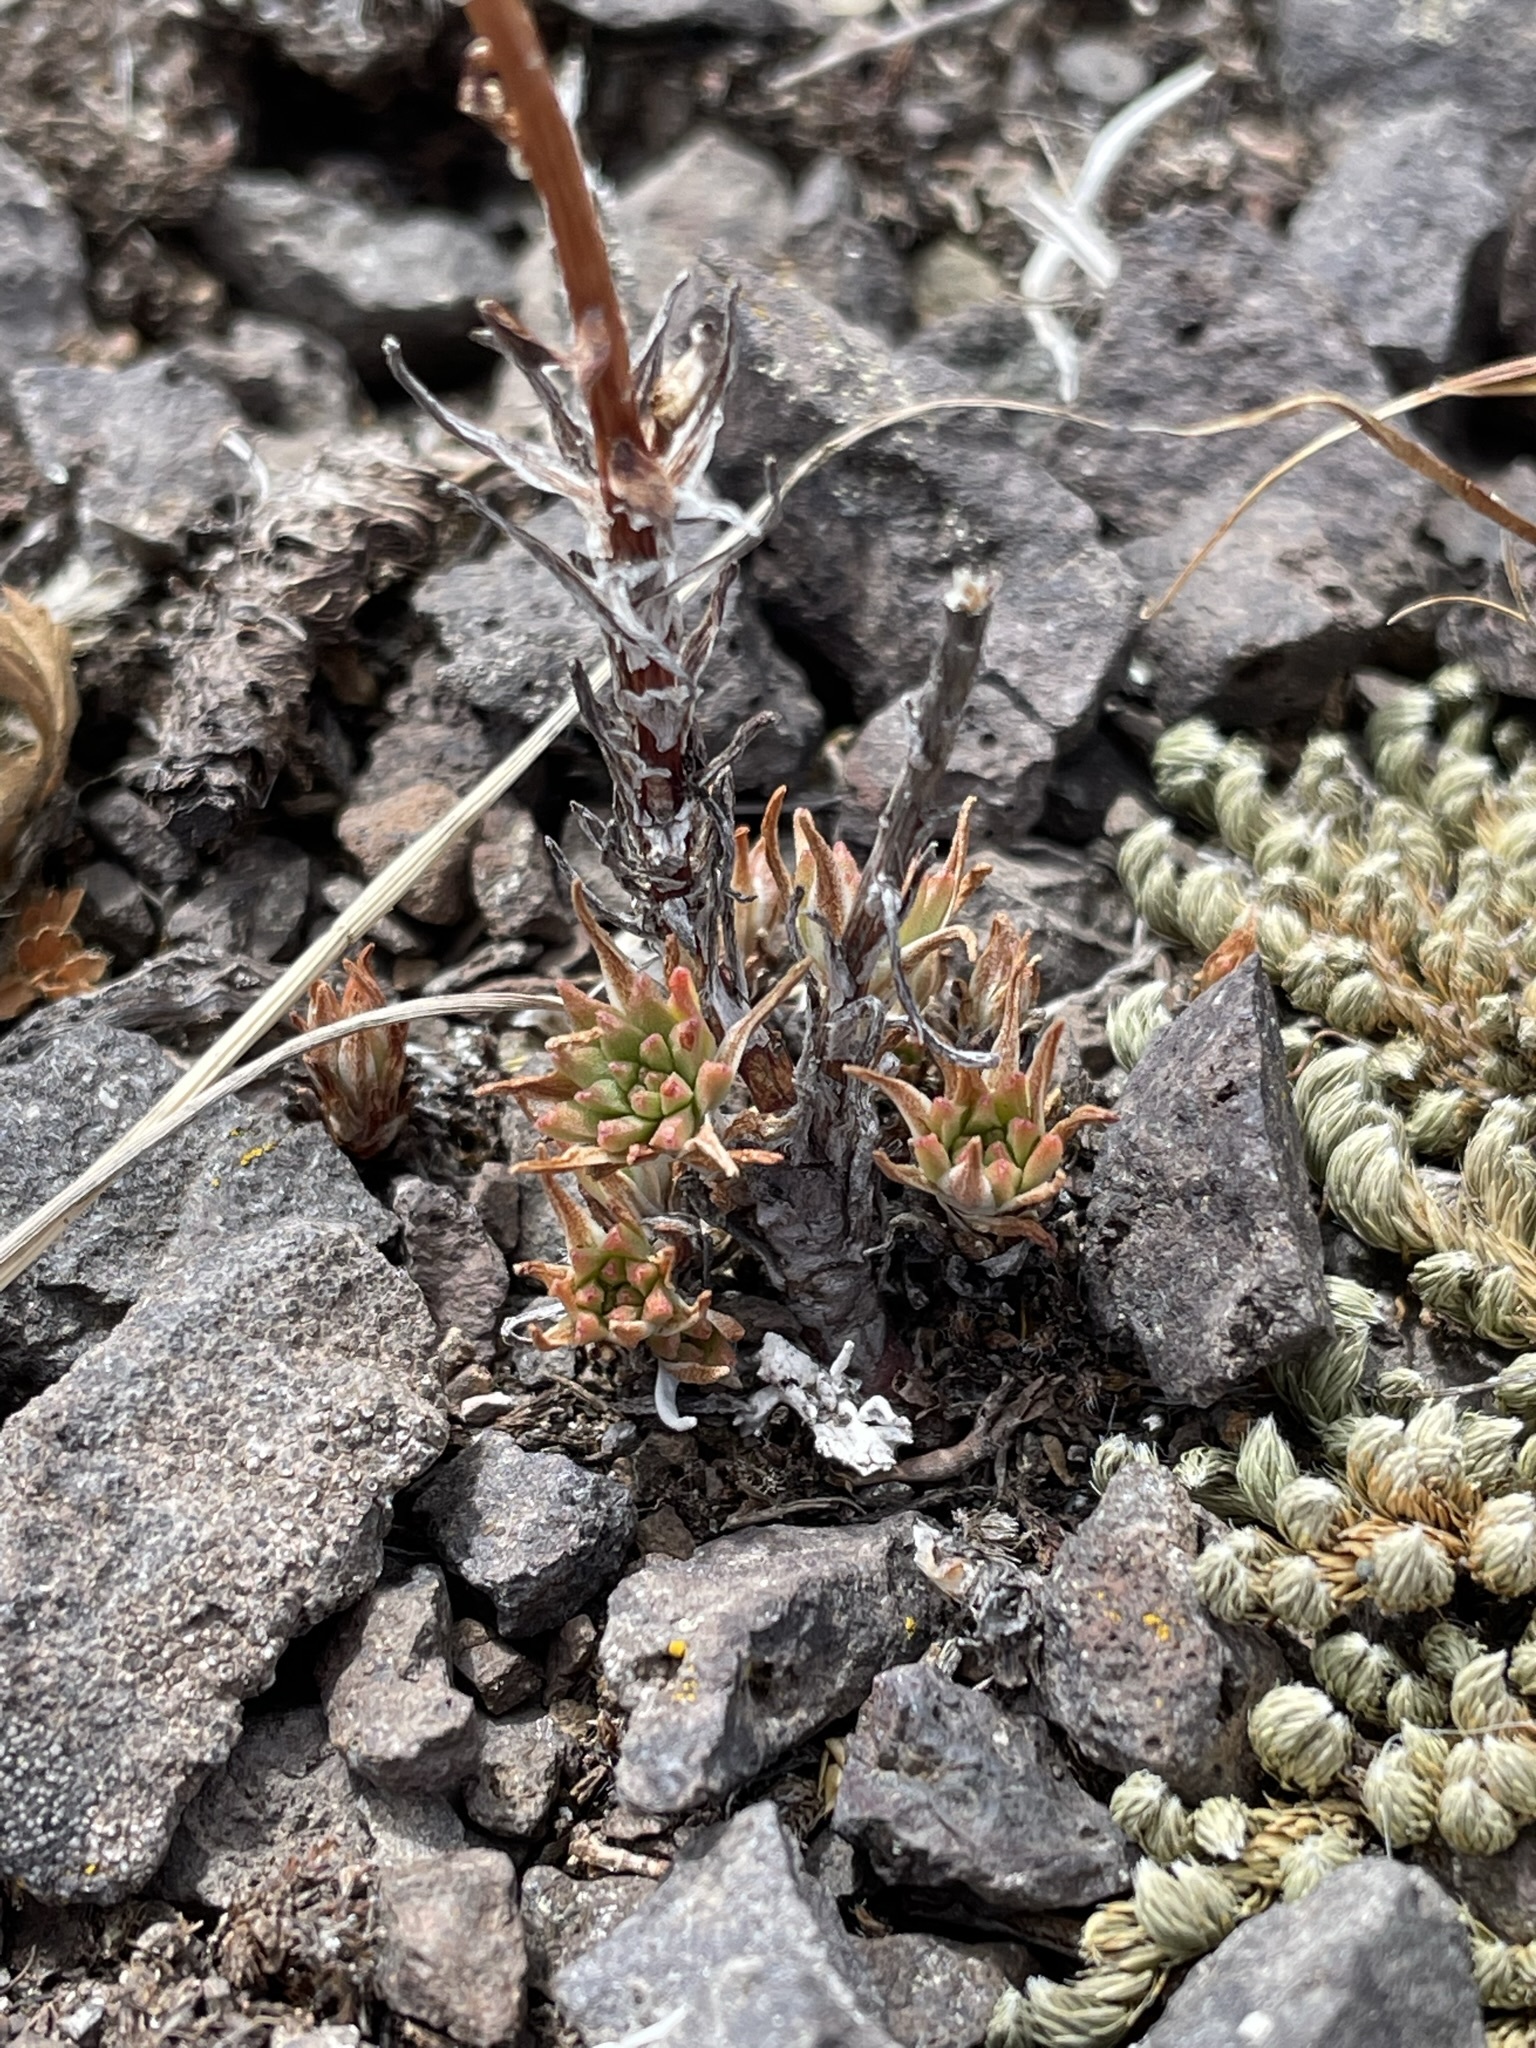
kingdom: Plantae
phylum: Tracheophyta
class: Magnoliopsida
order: Saxifragales
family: Crassulaceae
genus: Sedum
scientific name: Sedum stenopetalum
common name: Narrow-petaled stonecrop
